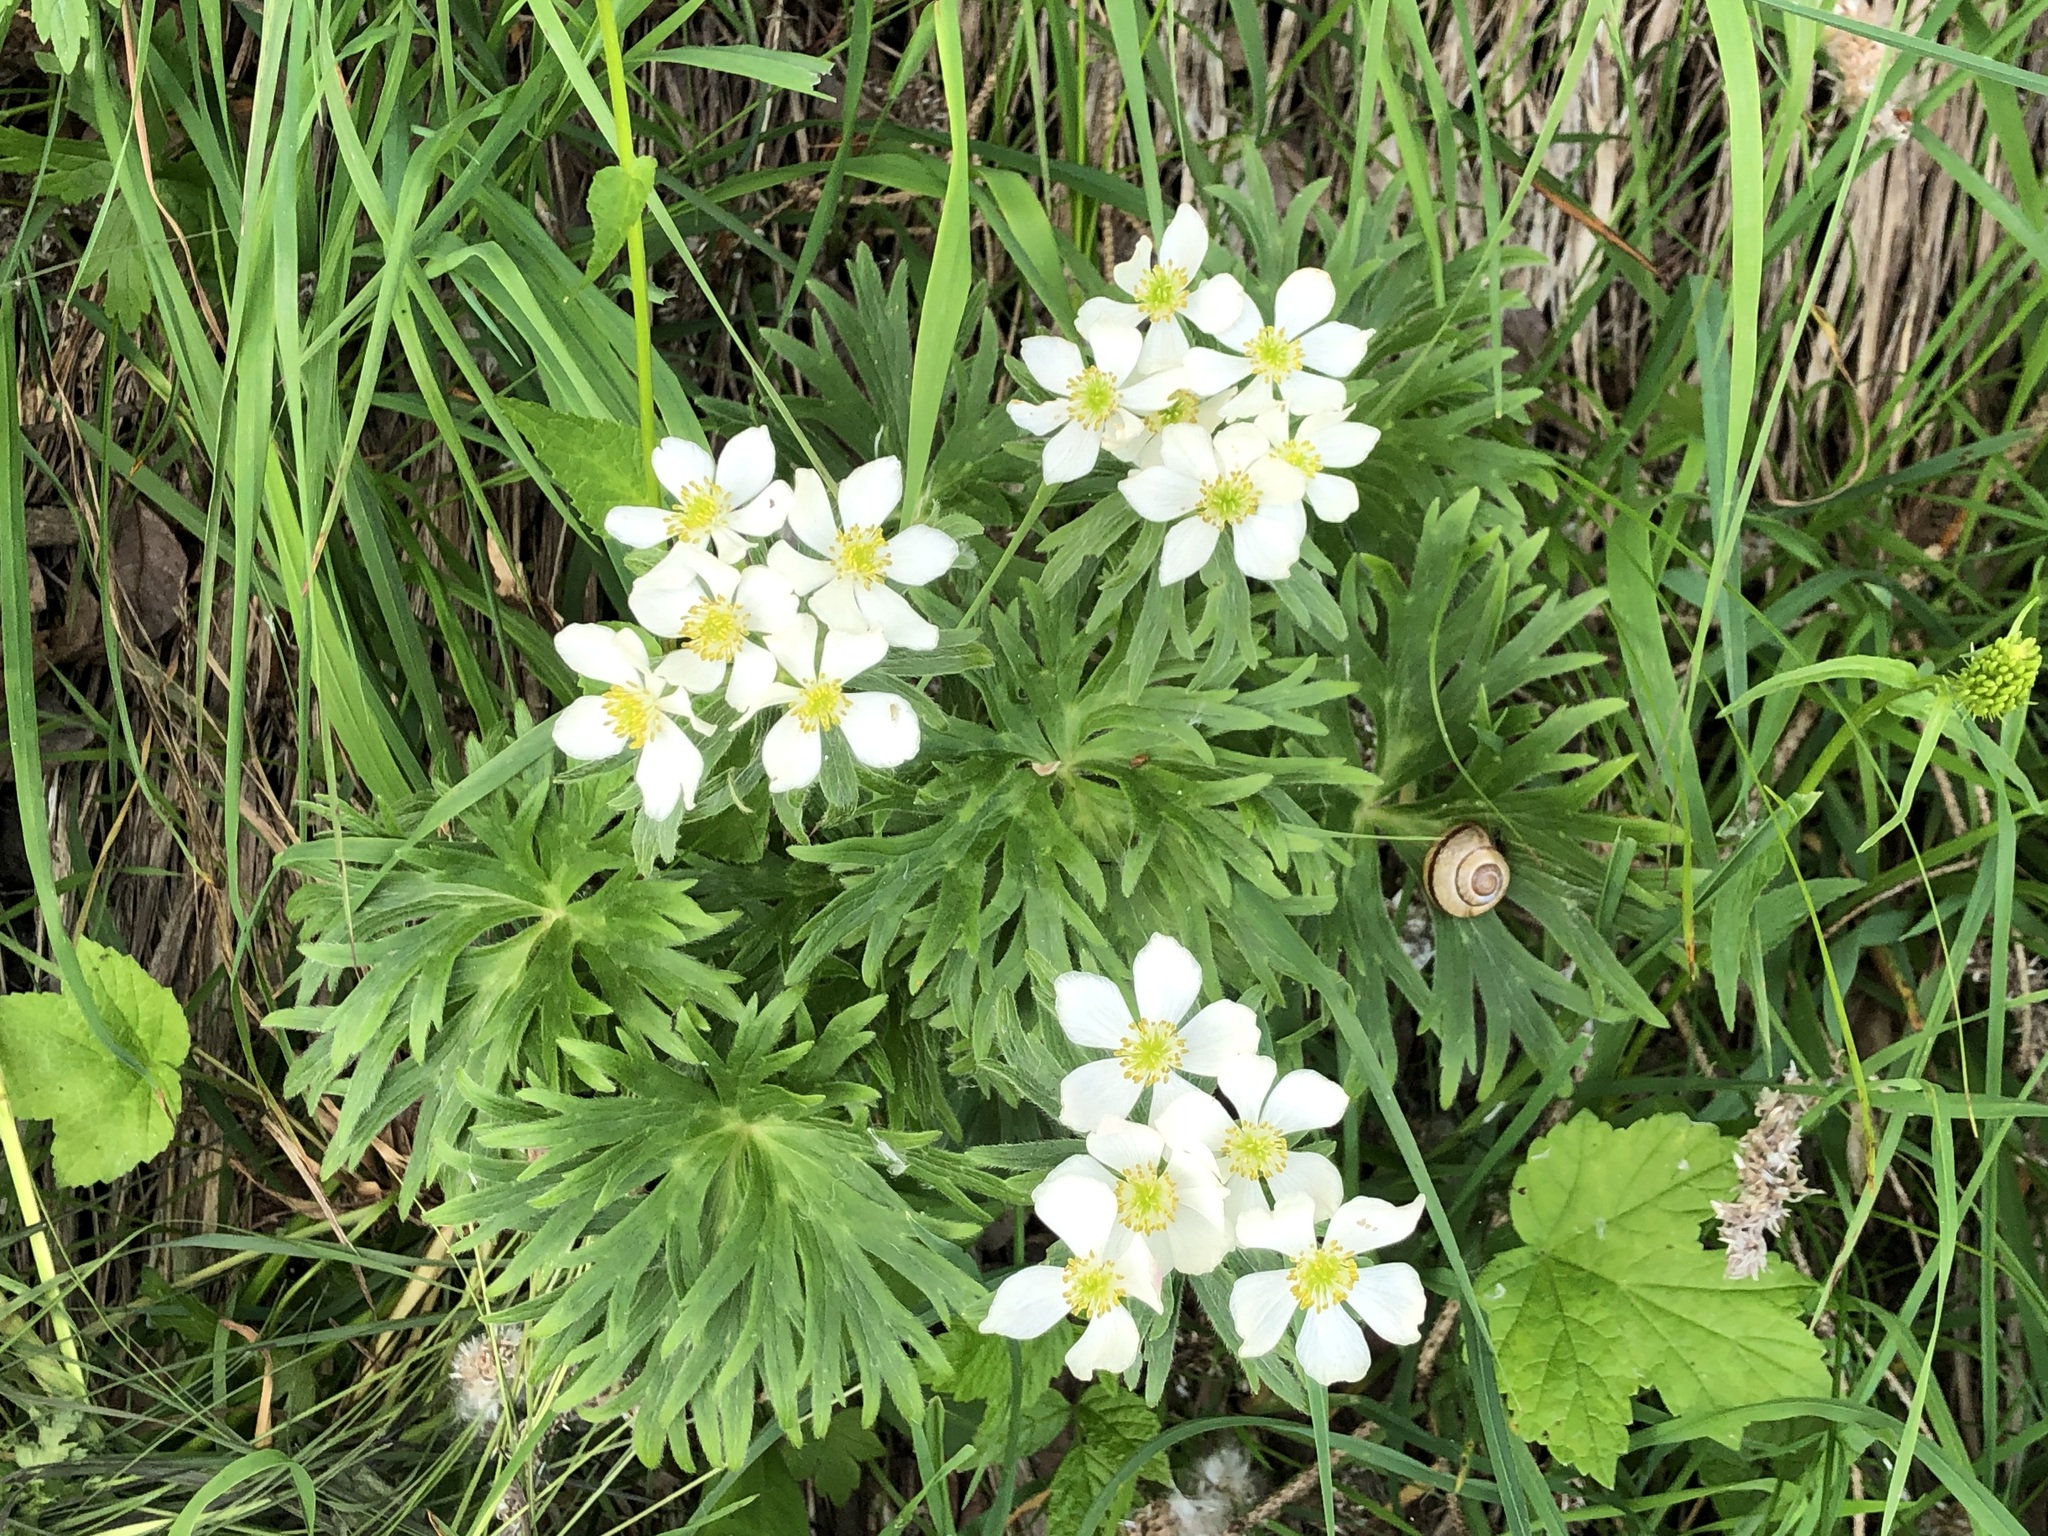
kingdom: Plantae
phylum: Tracheophyta
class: Magnoliopsida
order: Ranunculales
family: Ranunculaceae
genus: Anemonastrum
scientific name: Anemonastrum narcissiflorum
